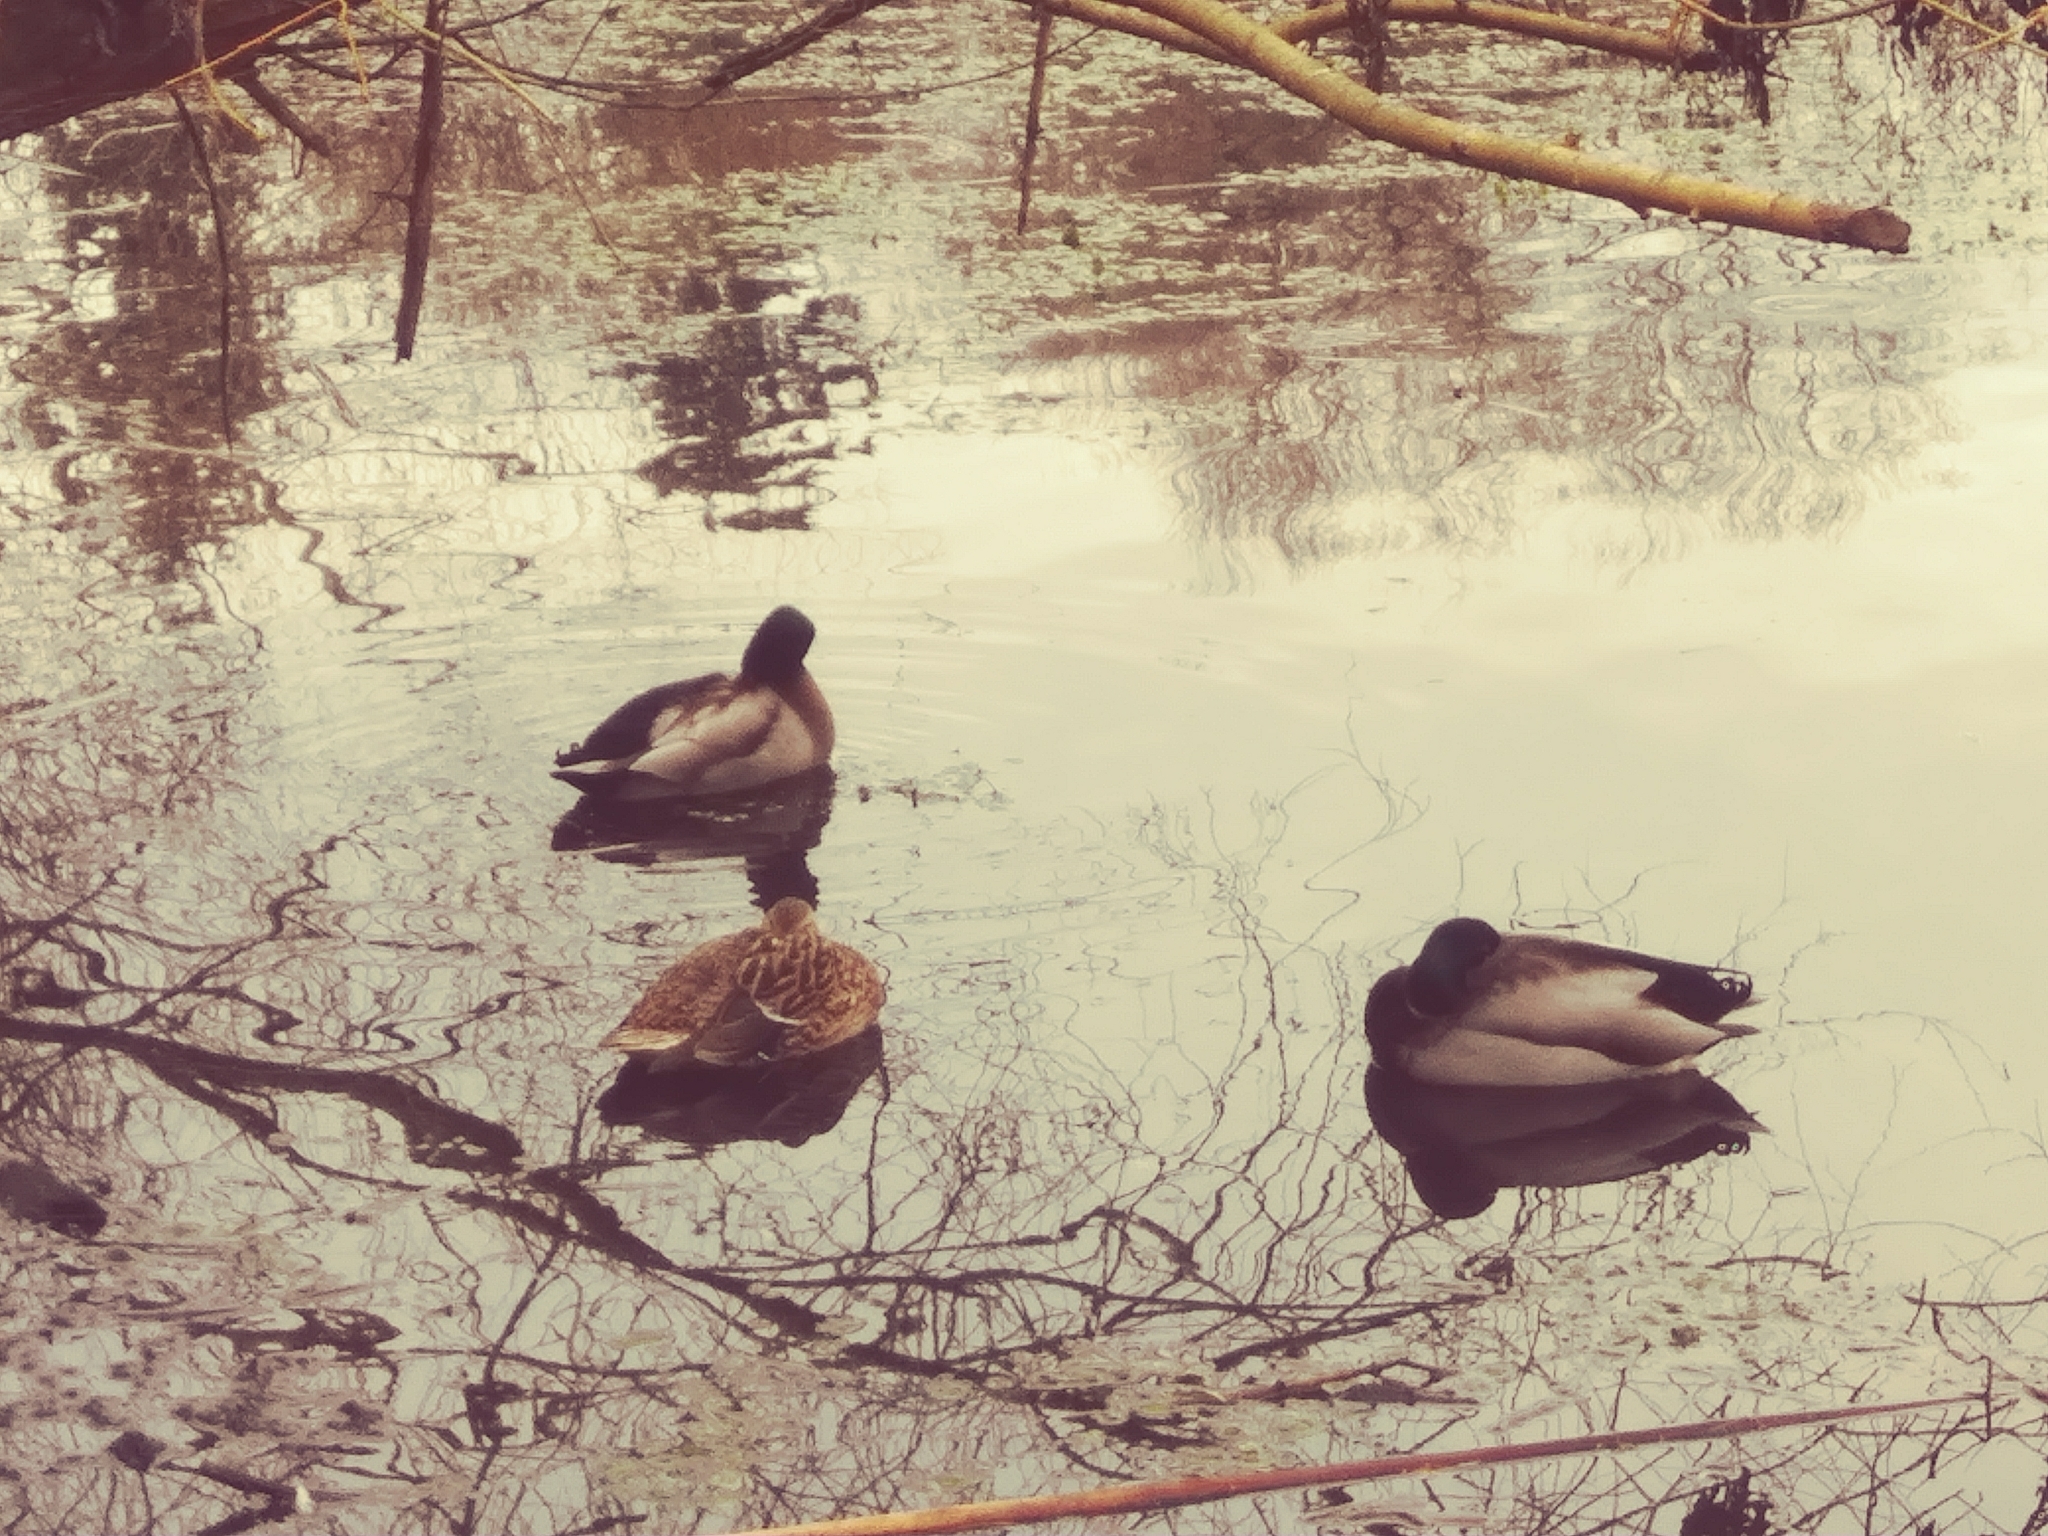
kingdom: Animalia
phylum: Chordata
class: Aves
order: Anseriformes
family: Anatidae
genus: Anas
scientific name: Anas platyrhynchos
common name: Mallard
